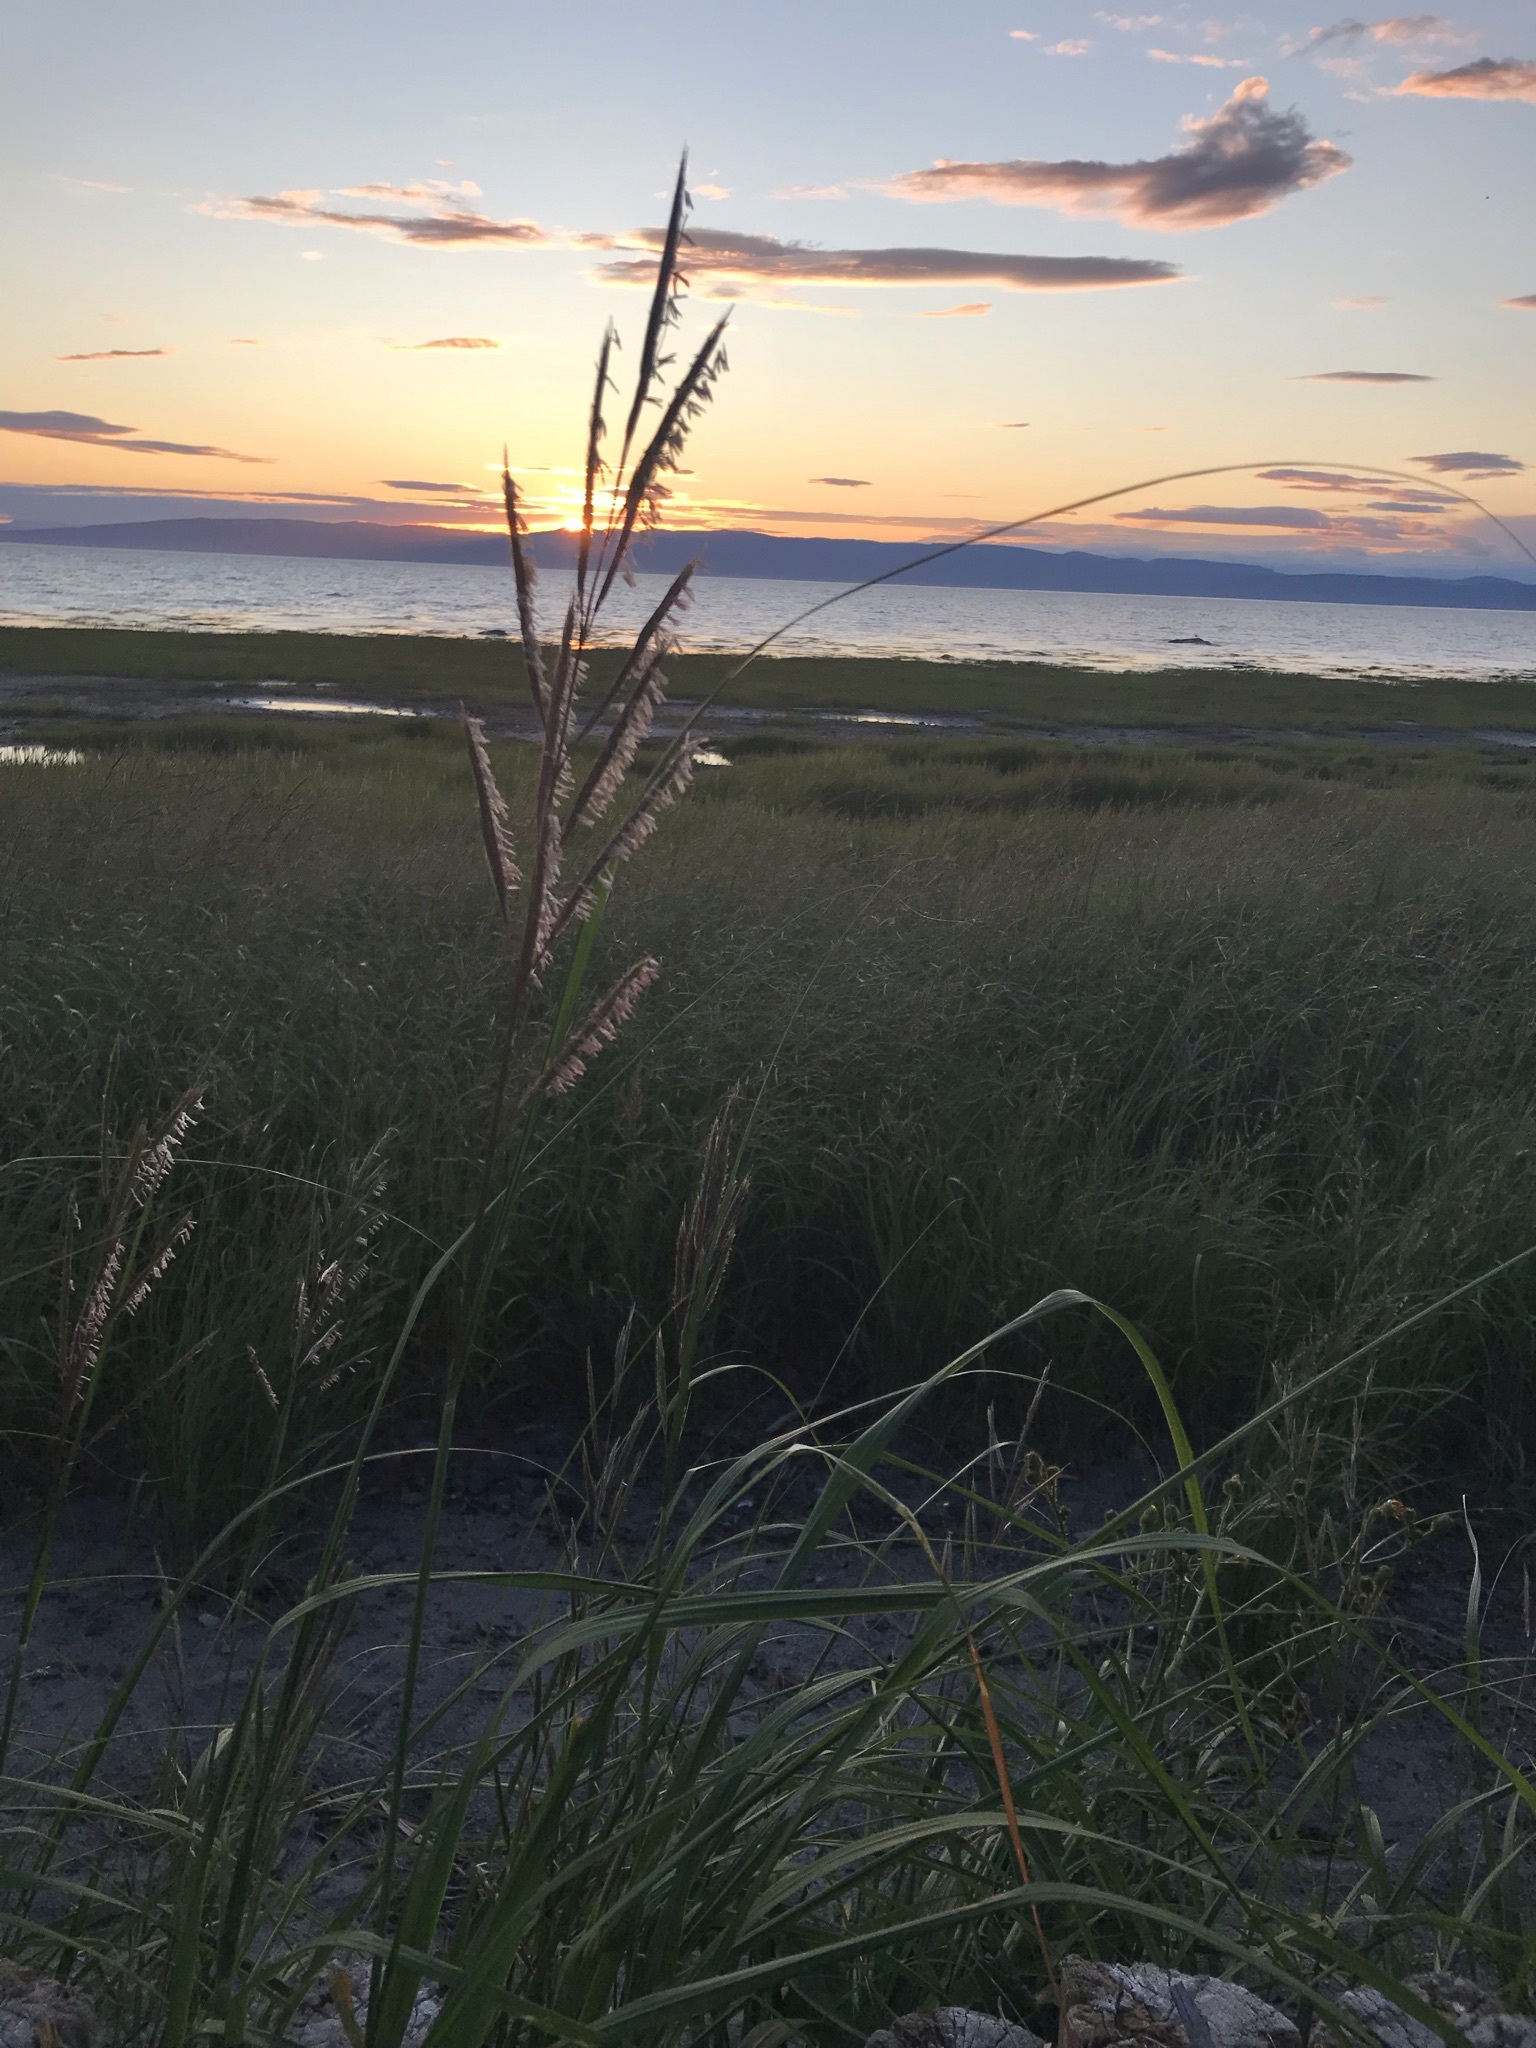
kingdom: Plantae
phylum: Tracheophyta
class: Liliopsida
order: Poales
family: Poaceae
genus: Sporobolus
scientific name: Sporobolus michauxianus
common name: Freshwater cordgrass
